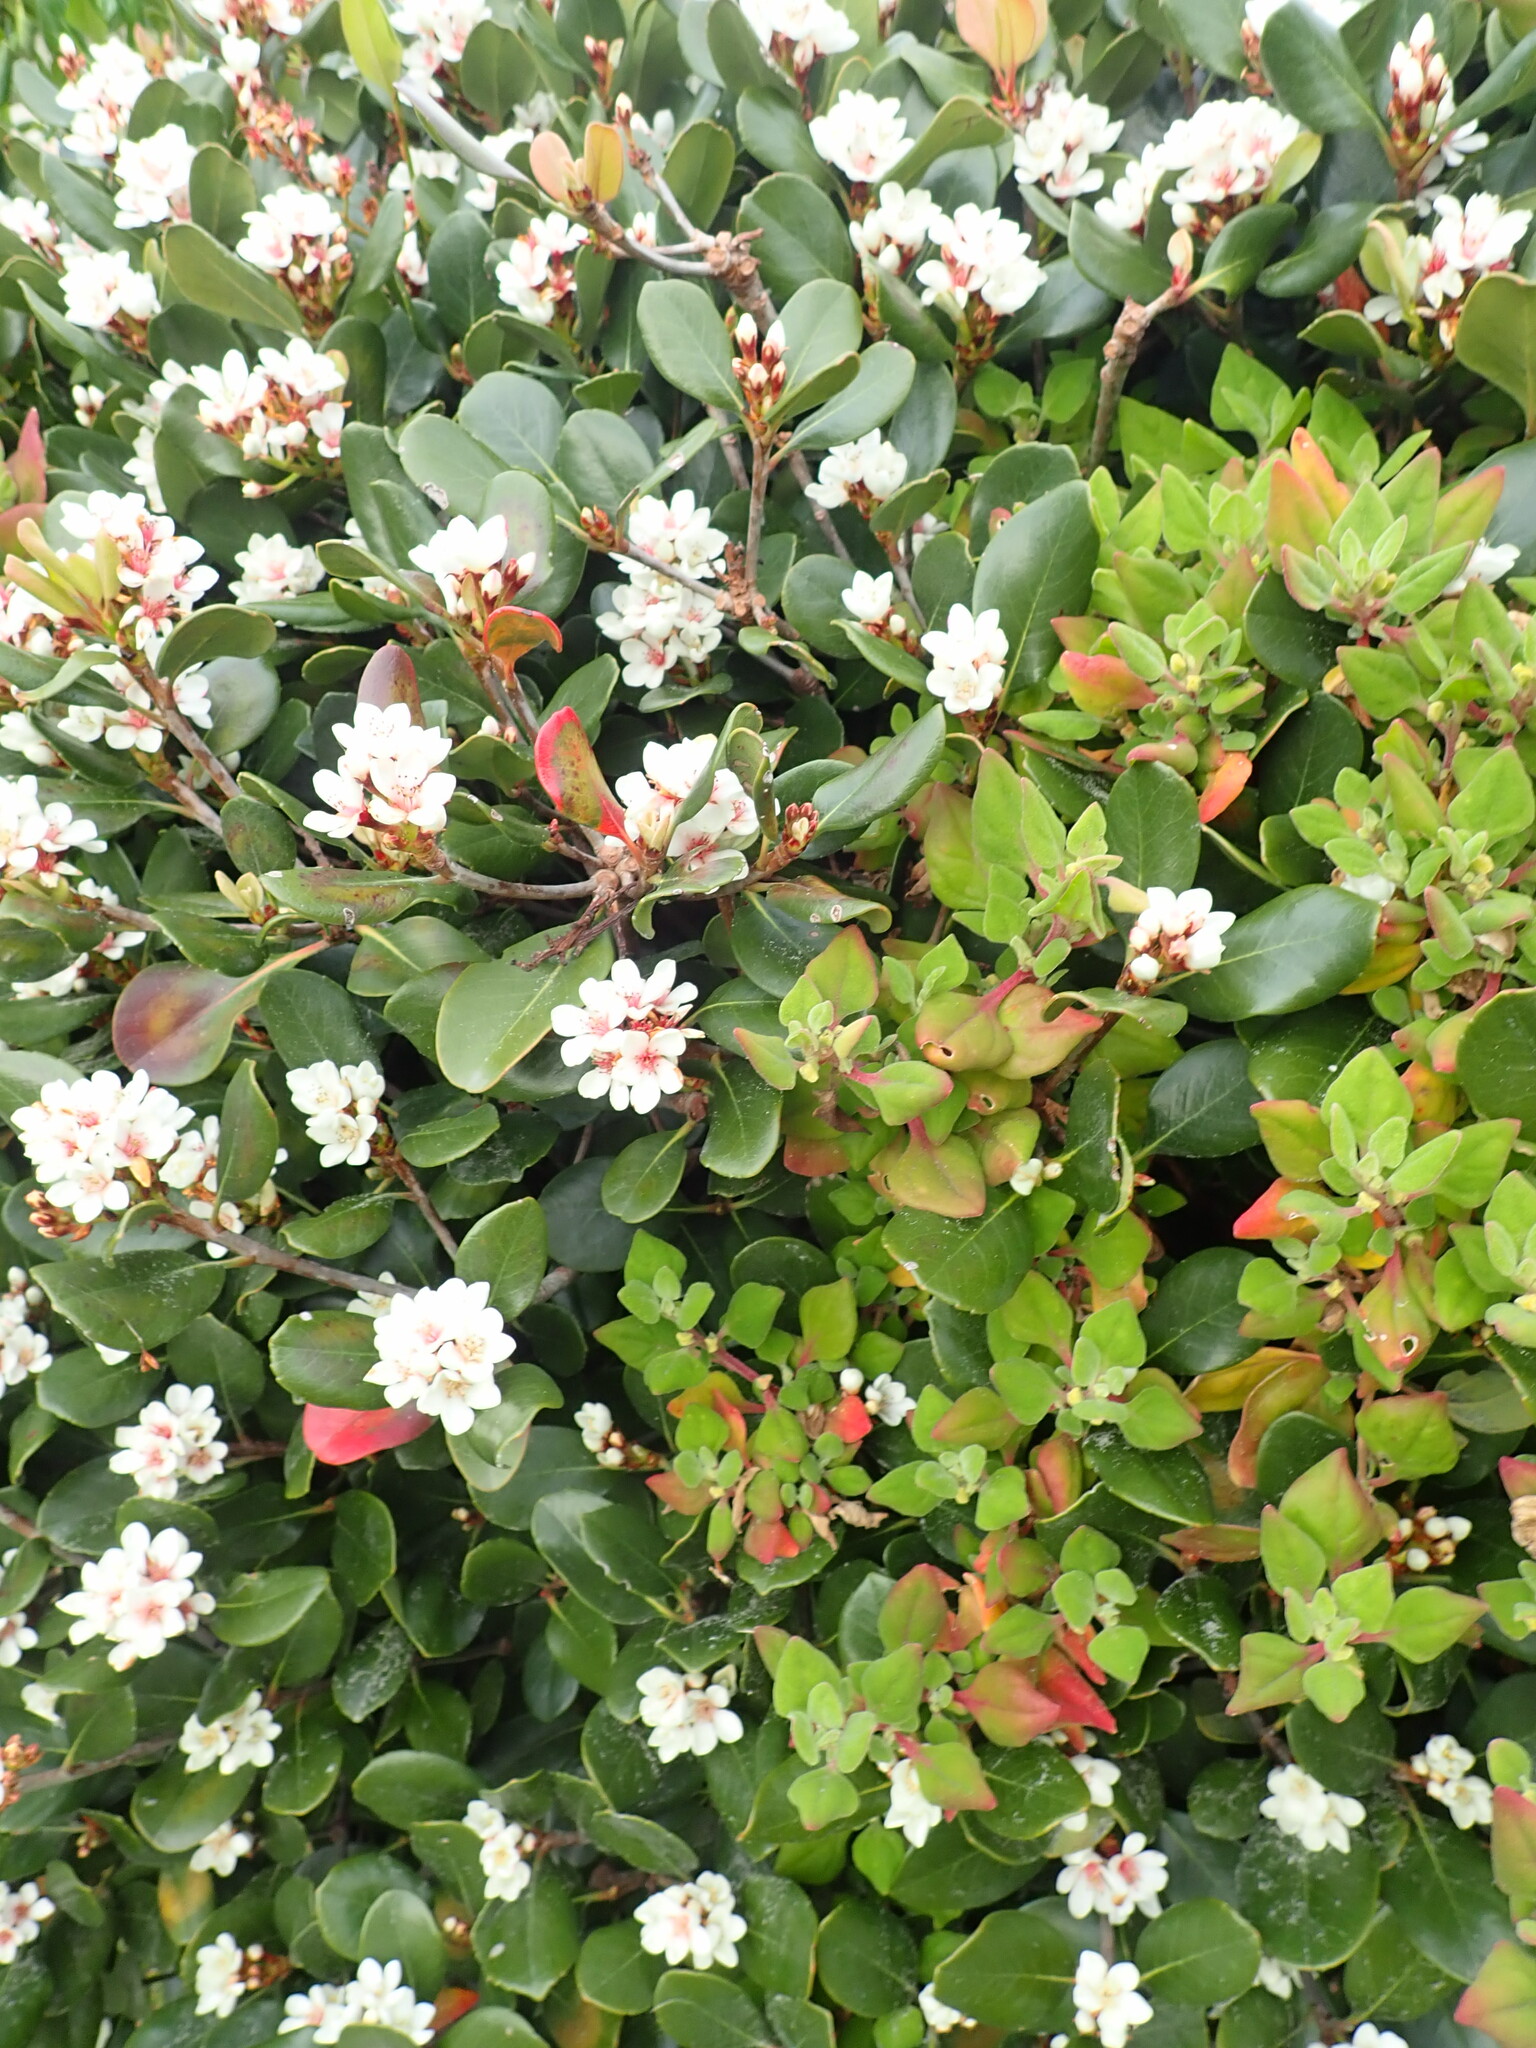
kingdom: Plantae
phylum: Tracheophyta
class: Magnoliopsida
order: Caryophyllales
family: Aizoaceae
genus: Tetragonia
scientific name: Tetragonia implexicoma
